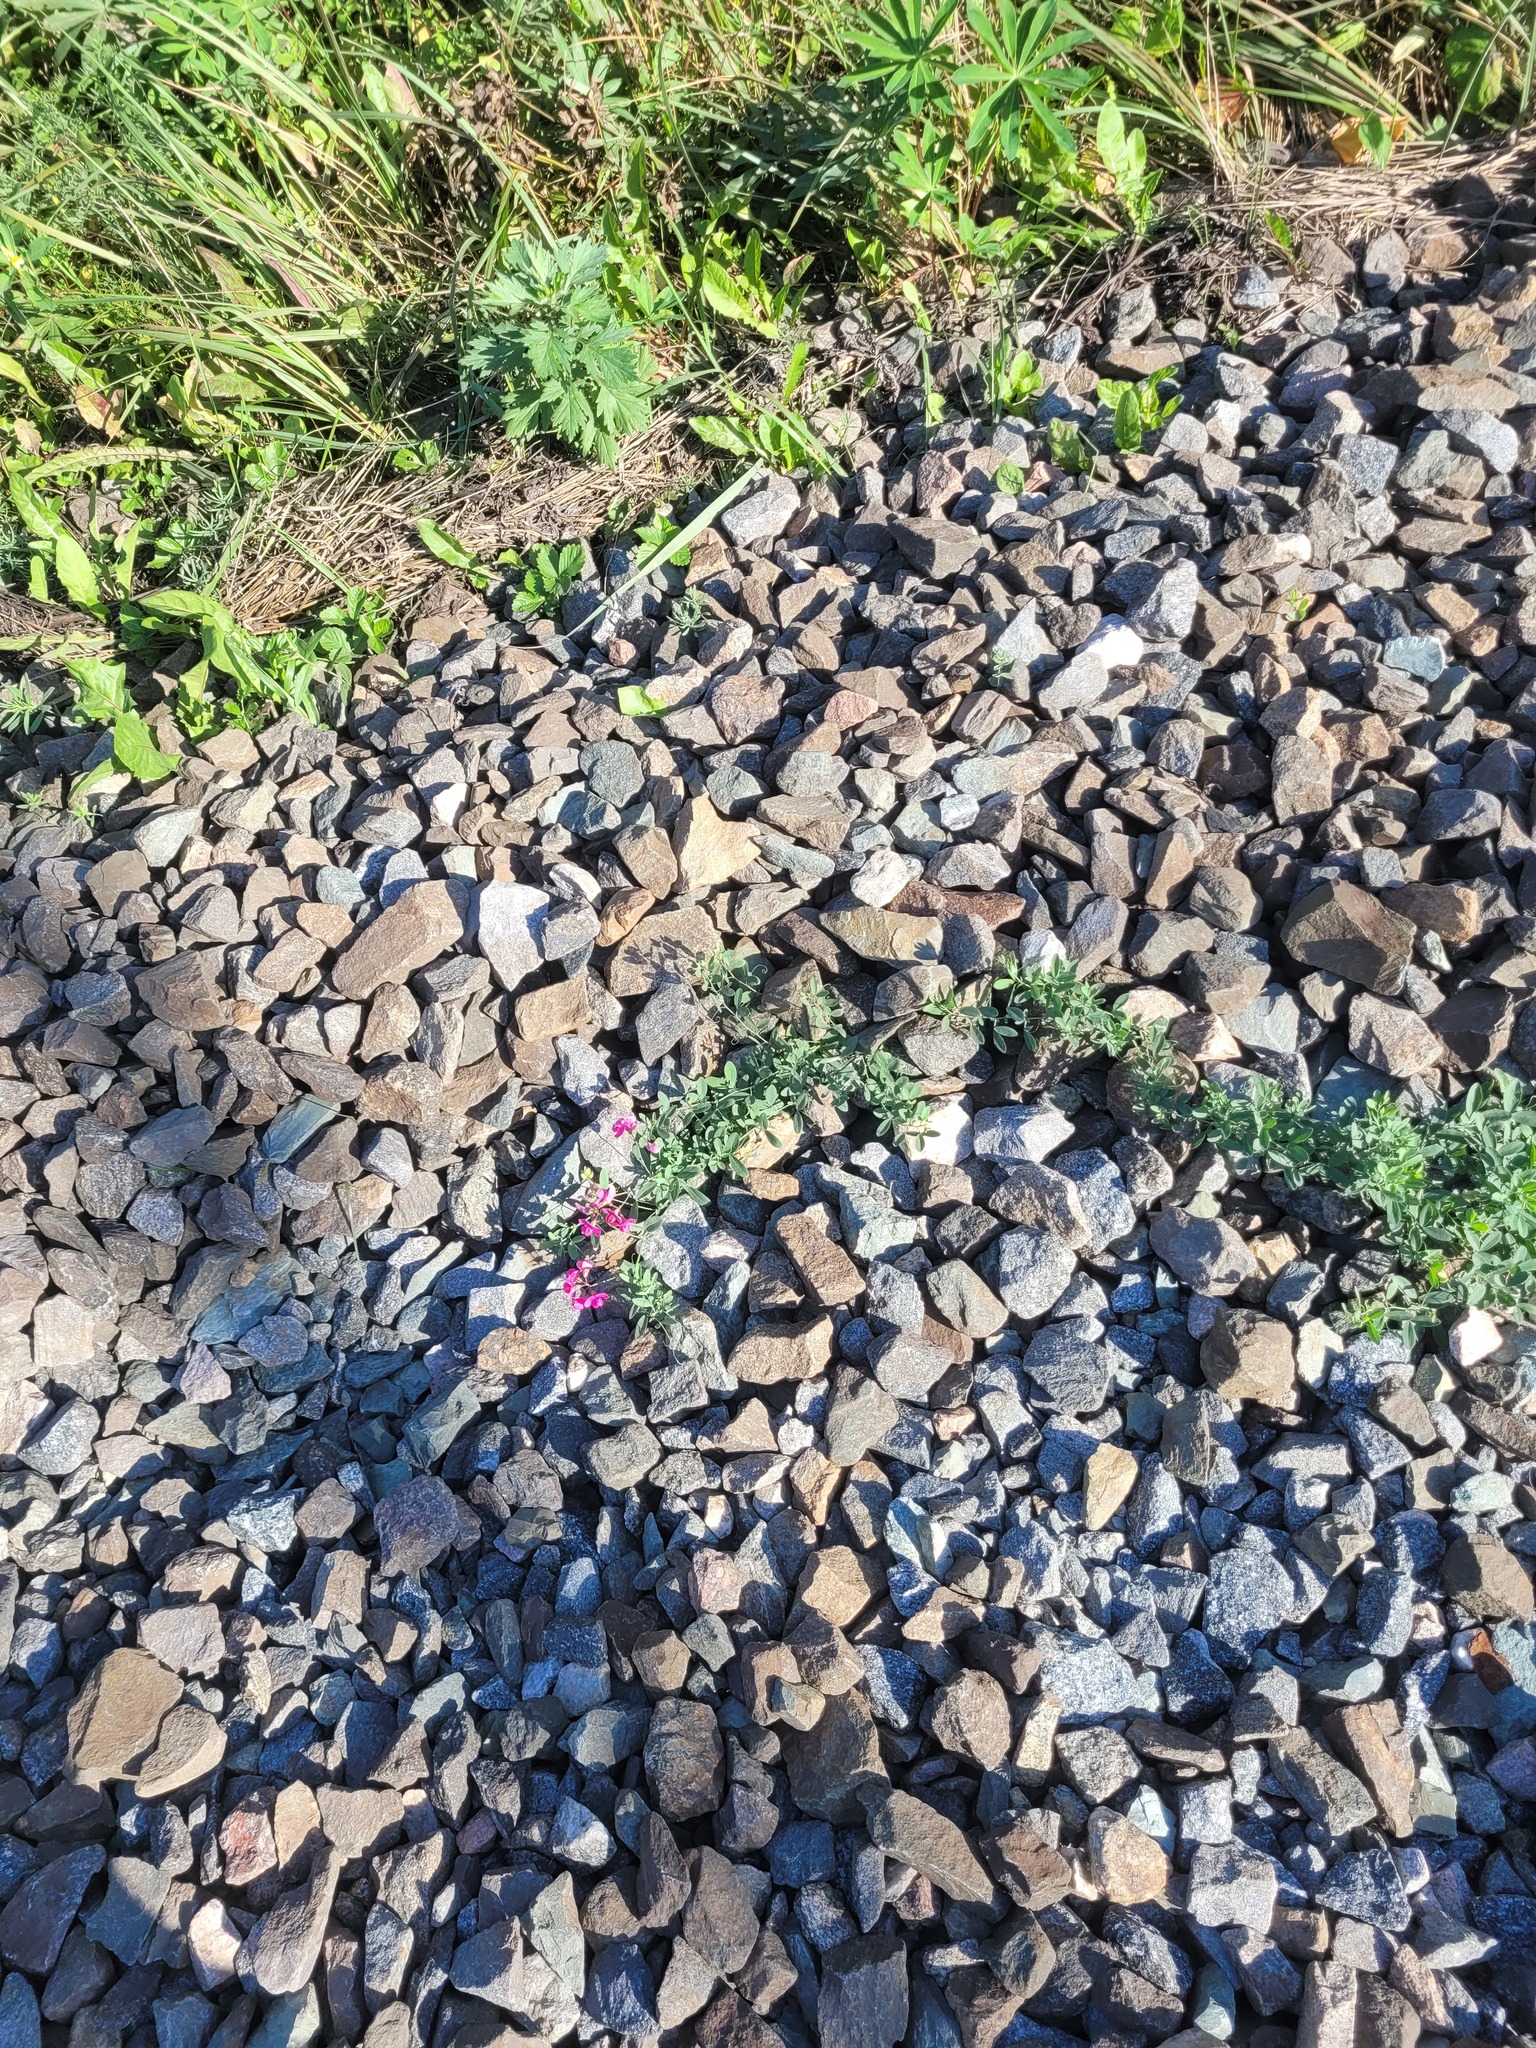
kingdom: Plantae
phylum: Tracheophyta
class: Magnoliopsida
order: Fabales
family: Fabaceae
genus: Lathyrus
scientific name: Lathyrus tuberosus
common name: Tuberous pea
